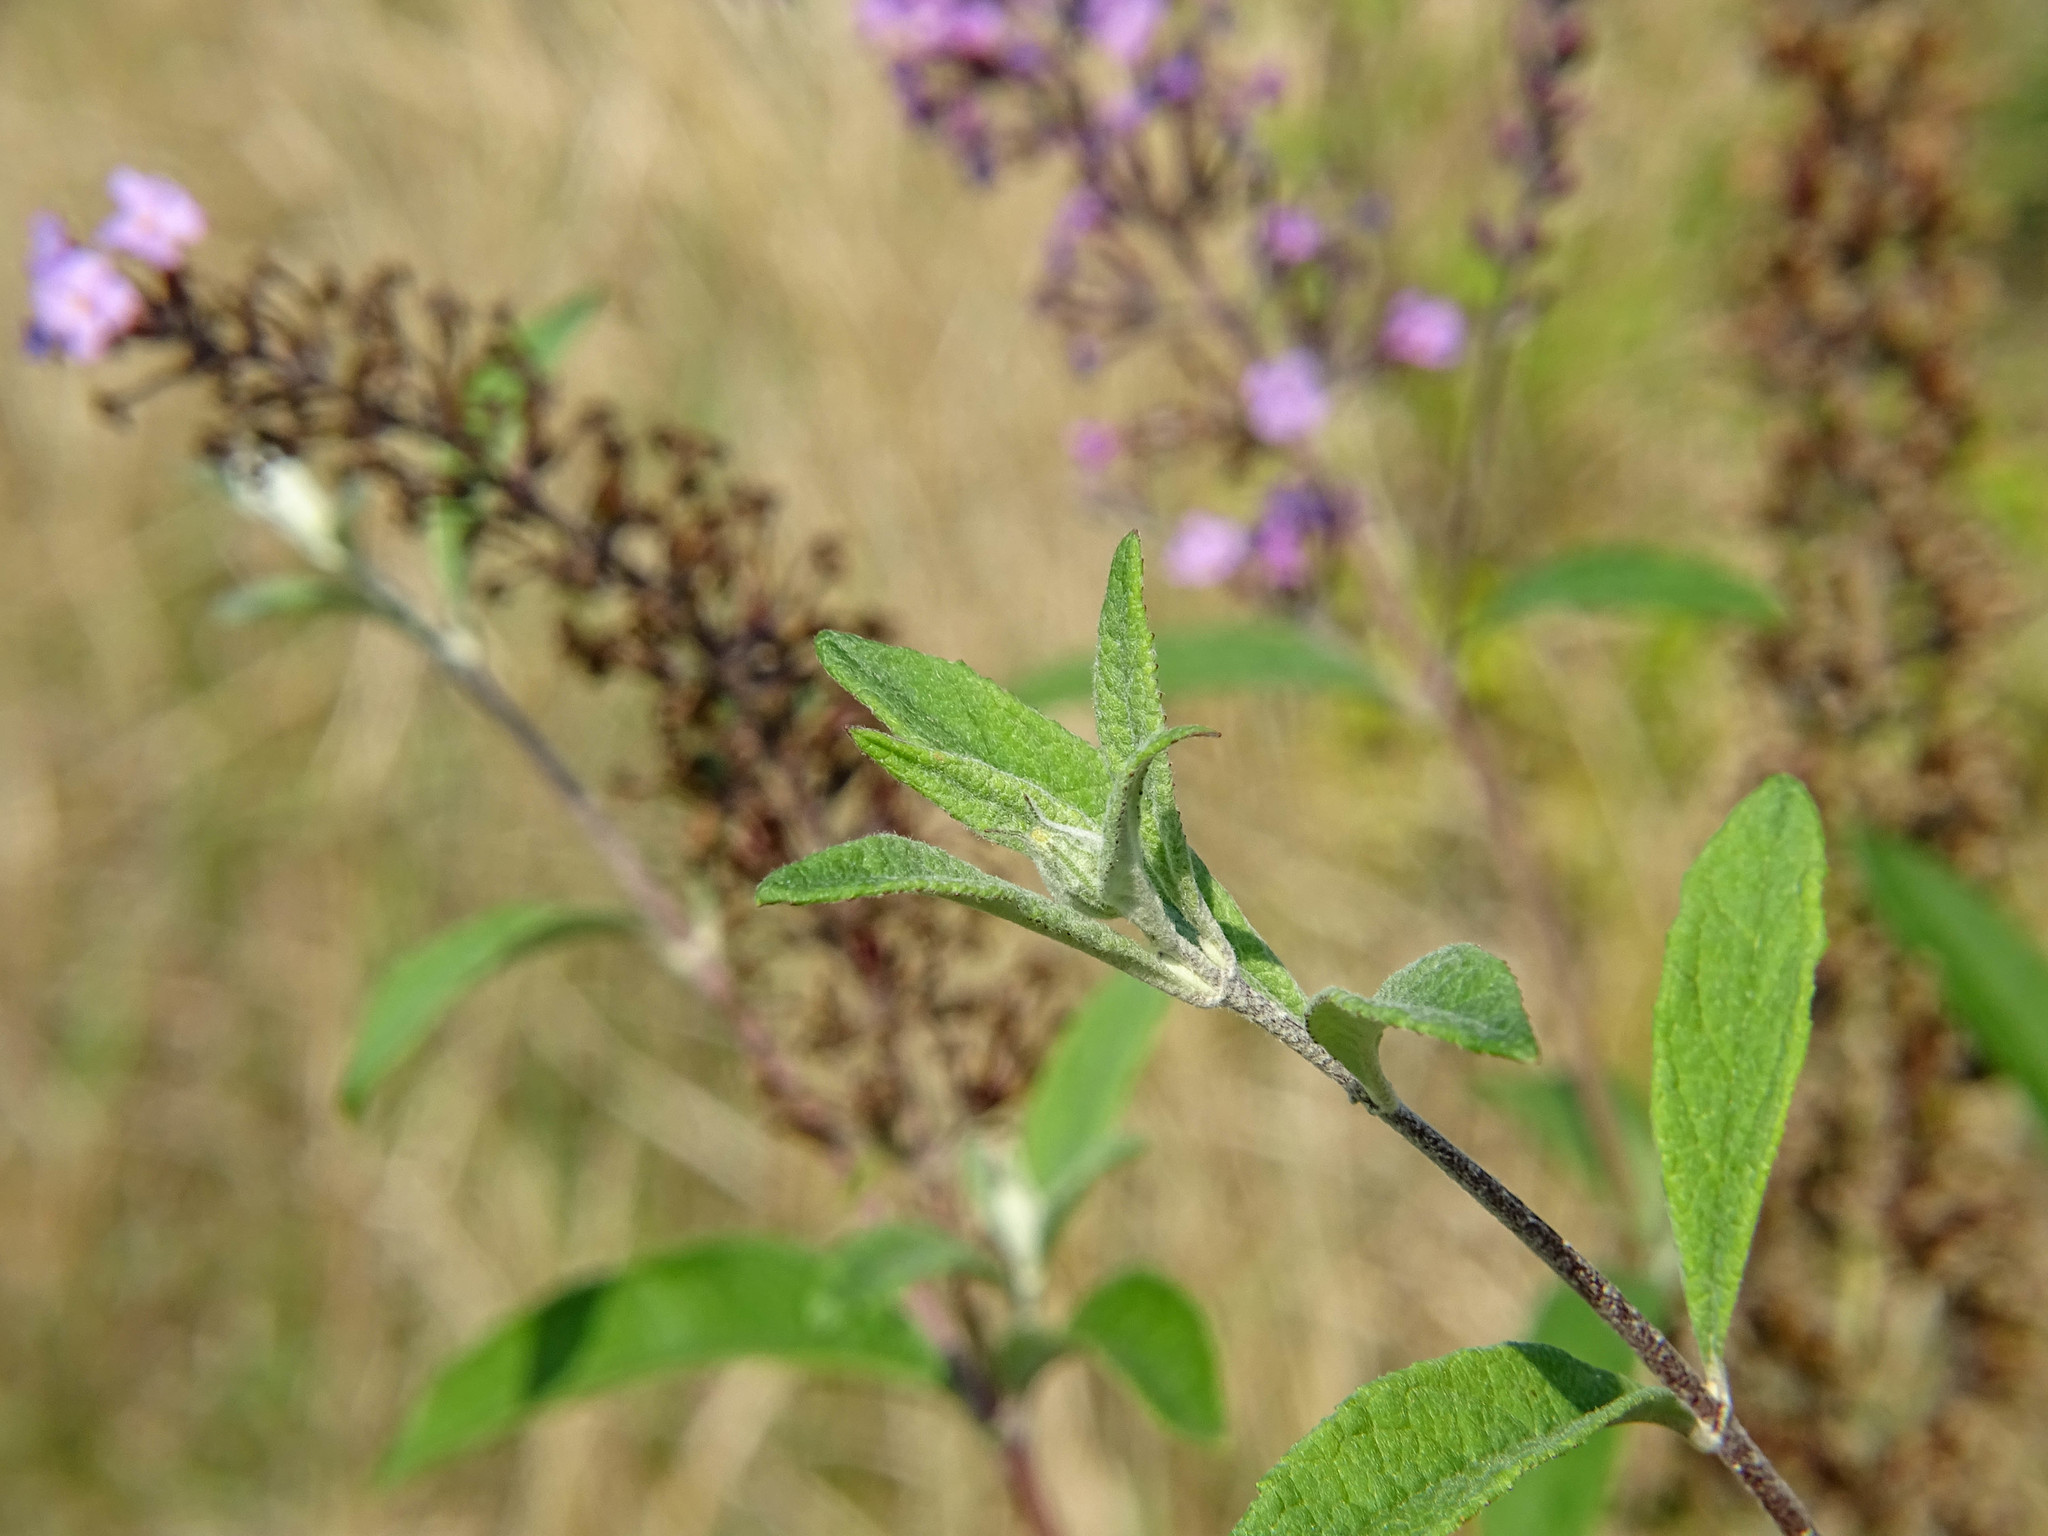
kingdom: Plantae
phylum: Tracheophyta
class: Magnoliopsida
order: Lamiales
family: Scrophulariaceae
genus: Buddleja
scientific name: Buddleja davidii
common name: Butterfly-bush
